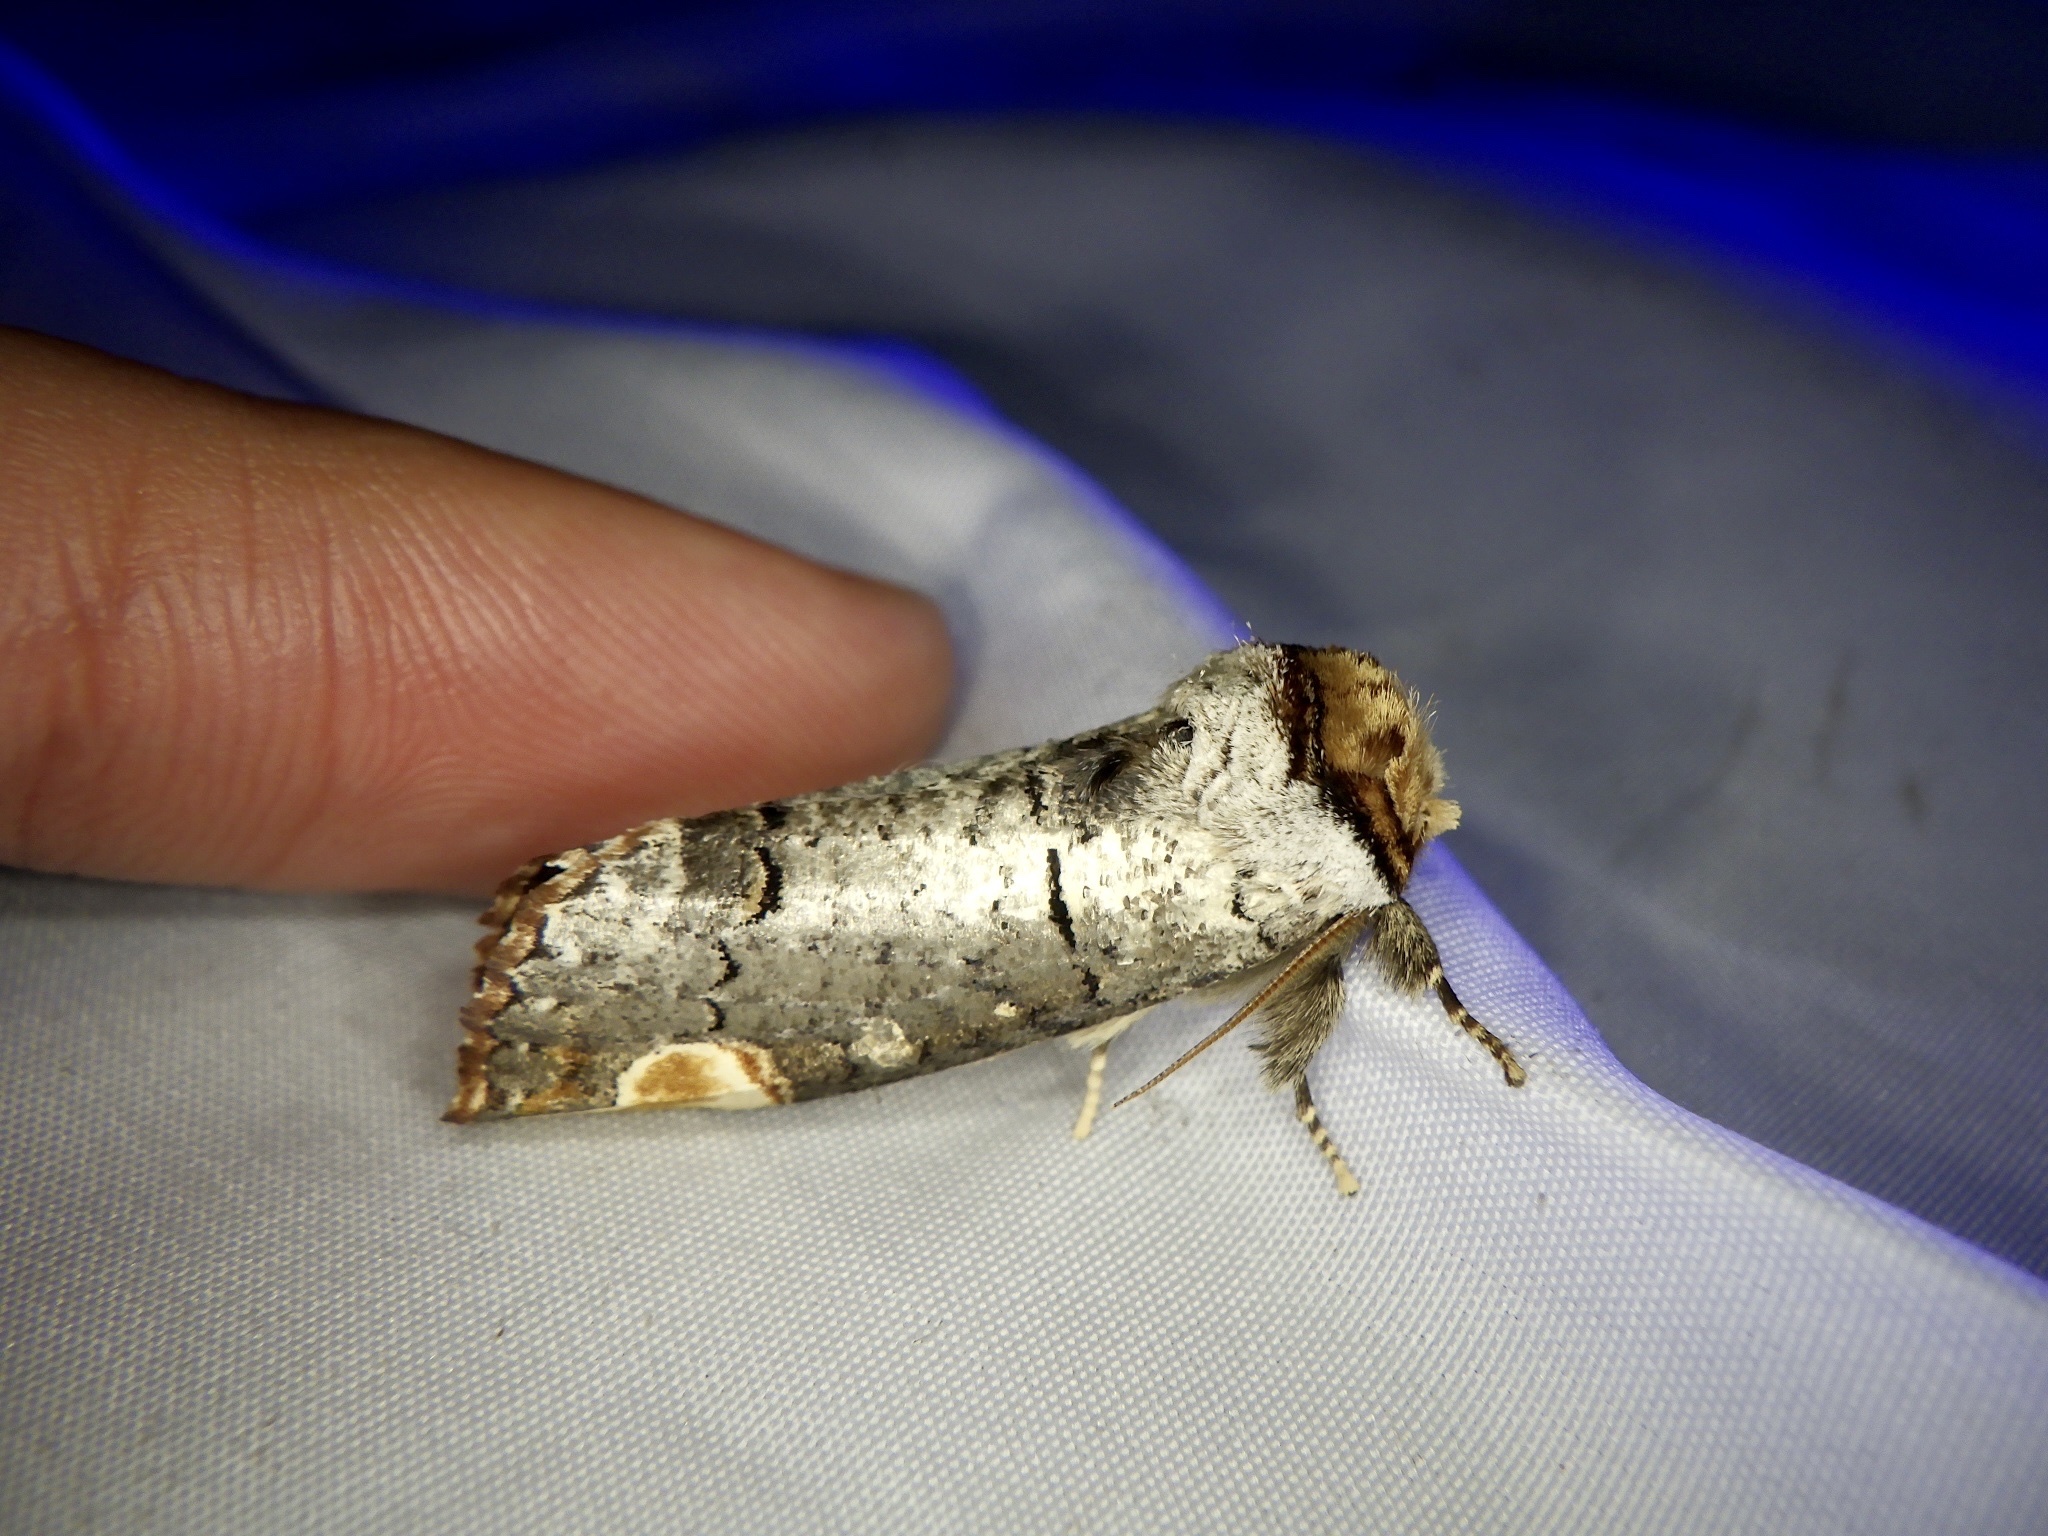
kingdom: Animalia
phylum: Arthropoda
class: Insecta
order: Lepidoptera
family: Notodontidae
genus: Phalera
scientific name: Phalera assimilis
